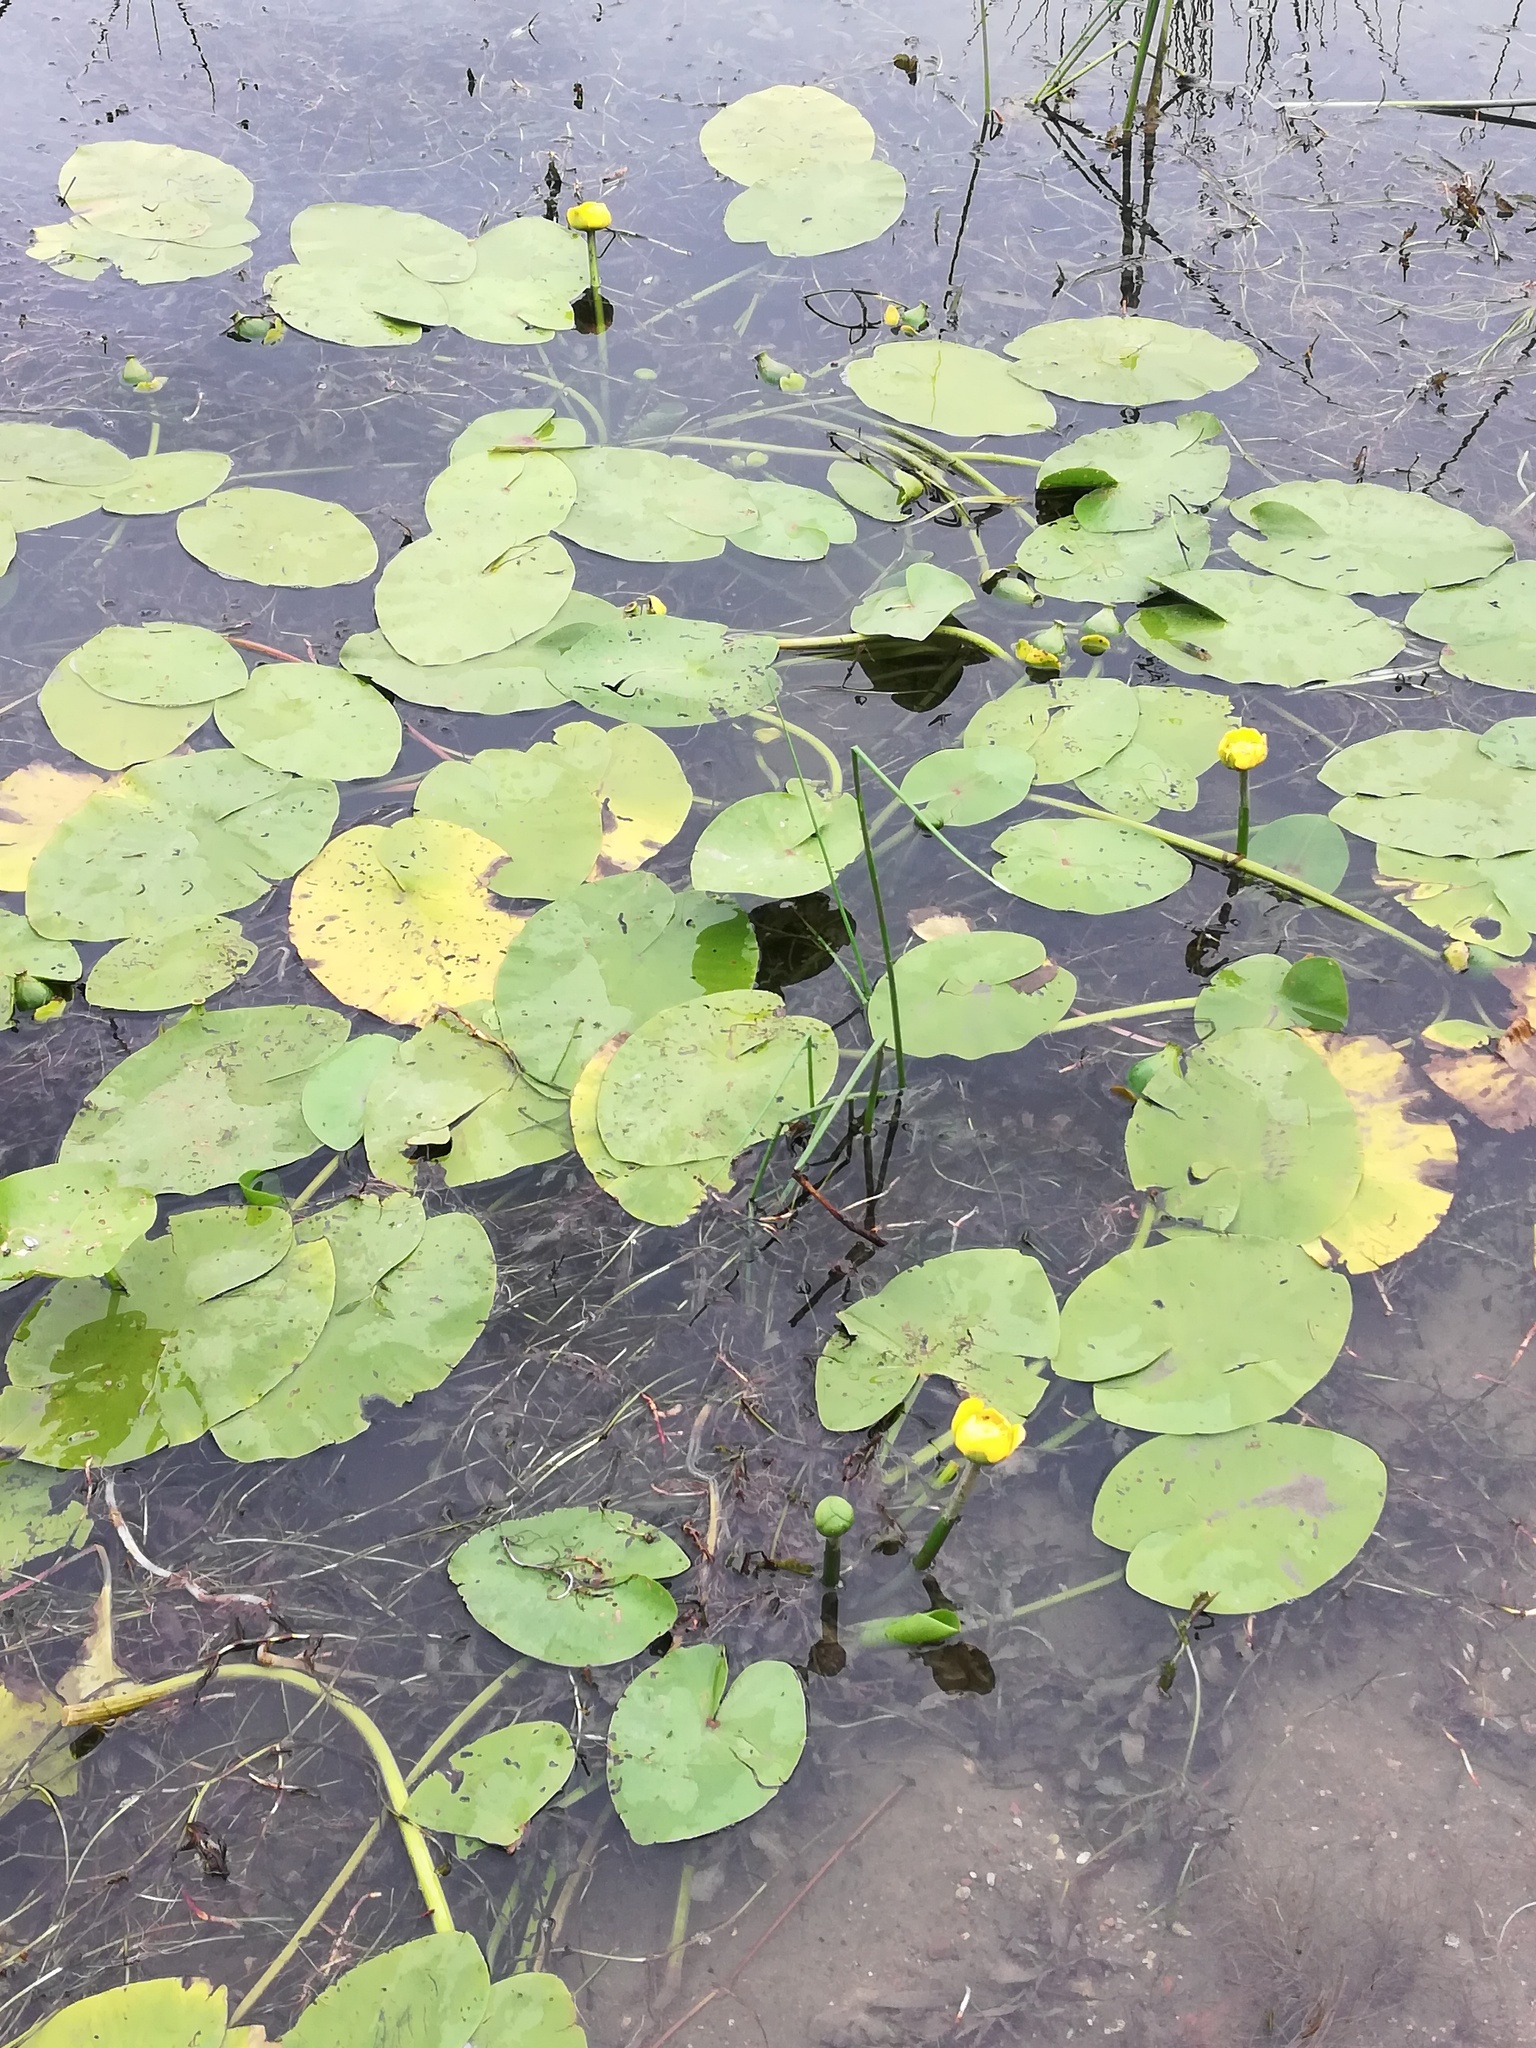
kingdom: Plantae
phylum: Tracheophyta
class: Magnoliopsida
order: Nymphaeales
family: Nymphaeaceae
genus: Nuphar
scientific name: Nuphar lutea
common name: Yellow water-lily
